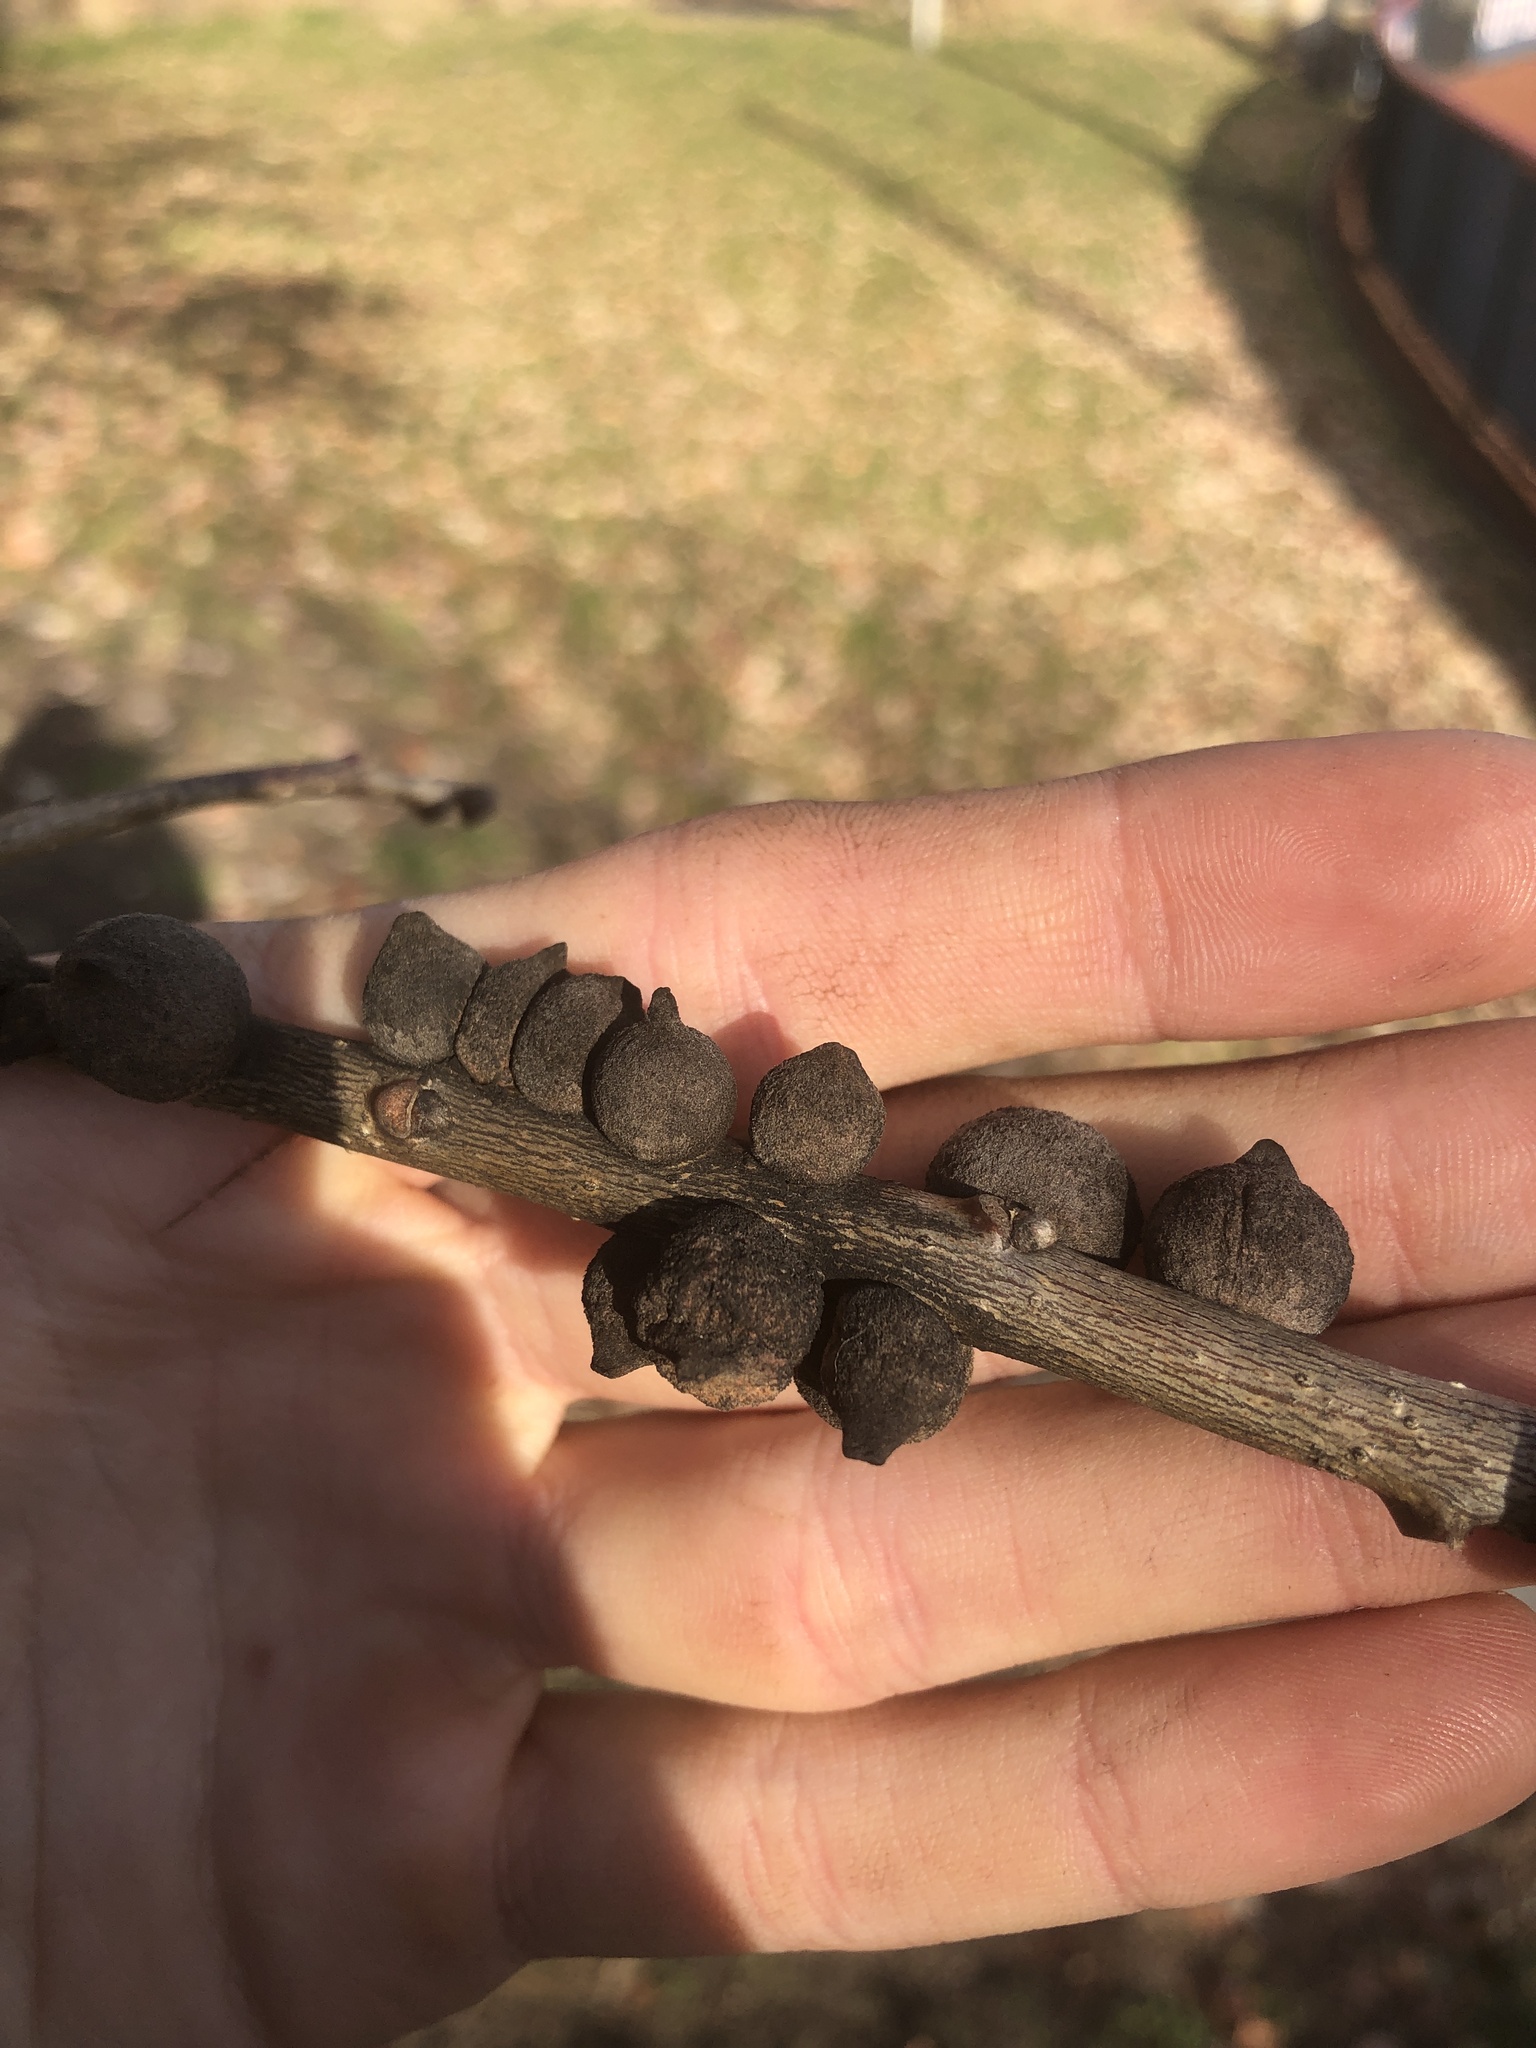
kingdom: Animalia
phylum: Arthropoda
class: Insecta
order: Hymenoptera
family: Cynipidae
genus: Disholcaspis
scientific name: Disholcaspis
